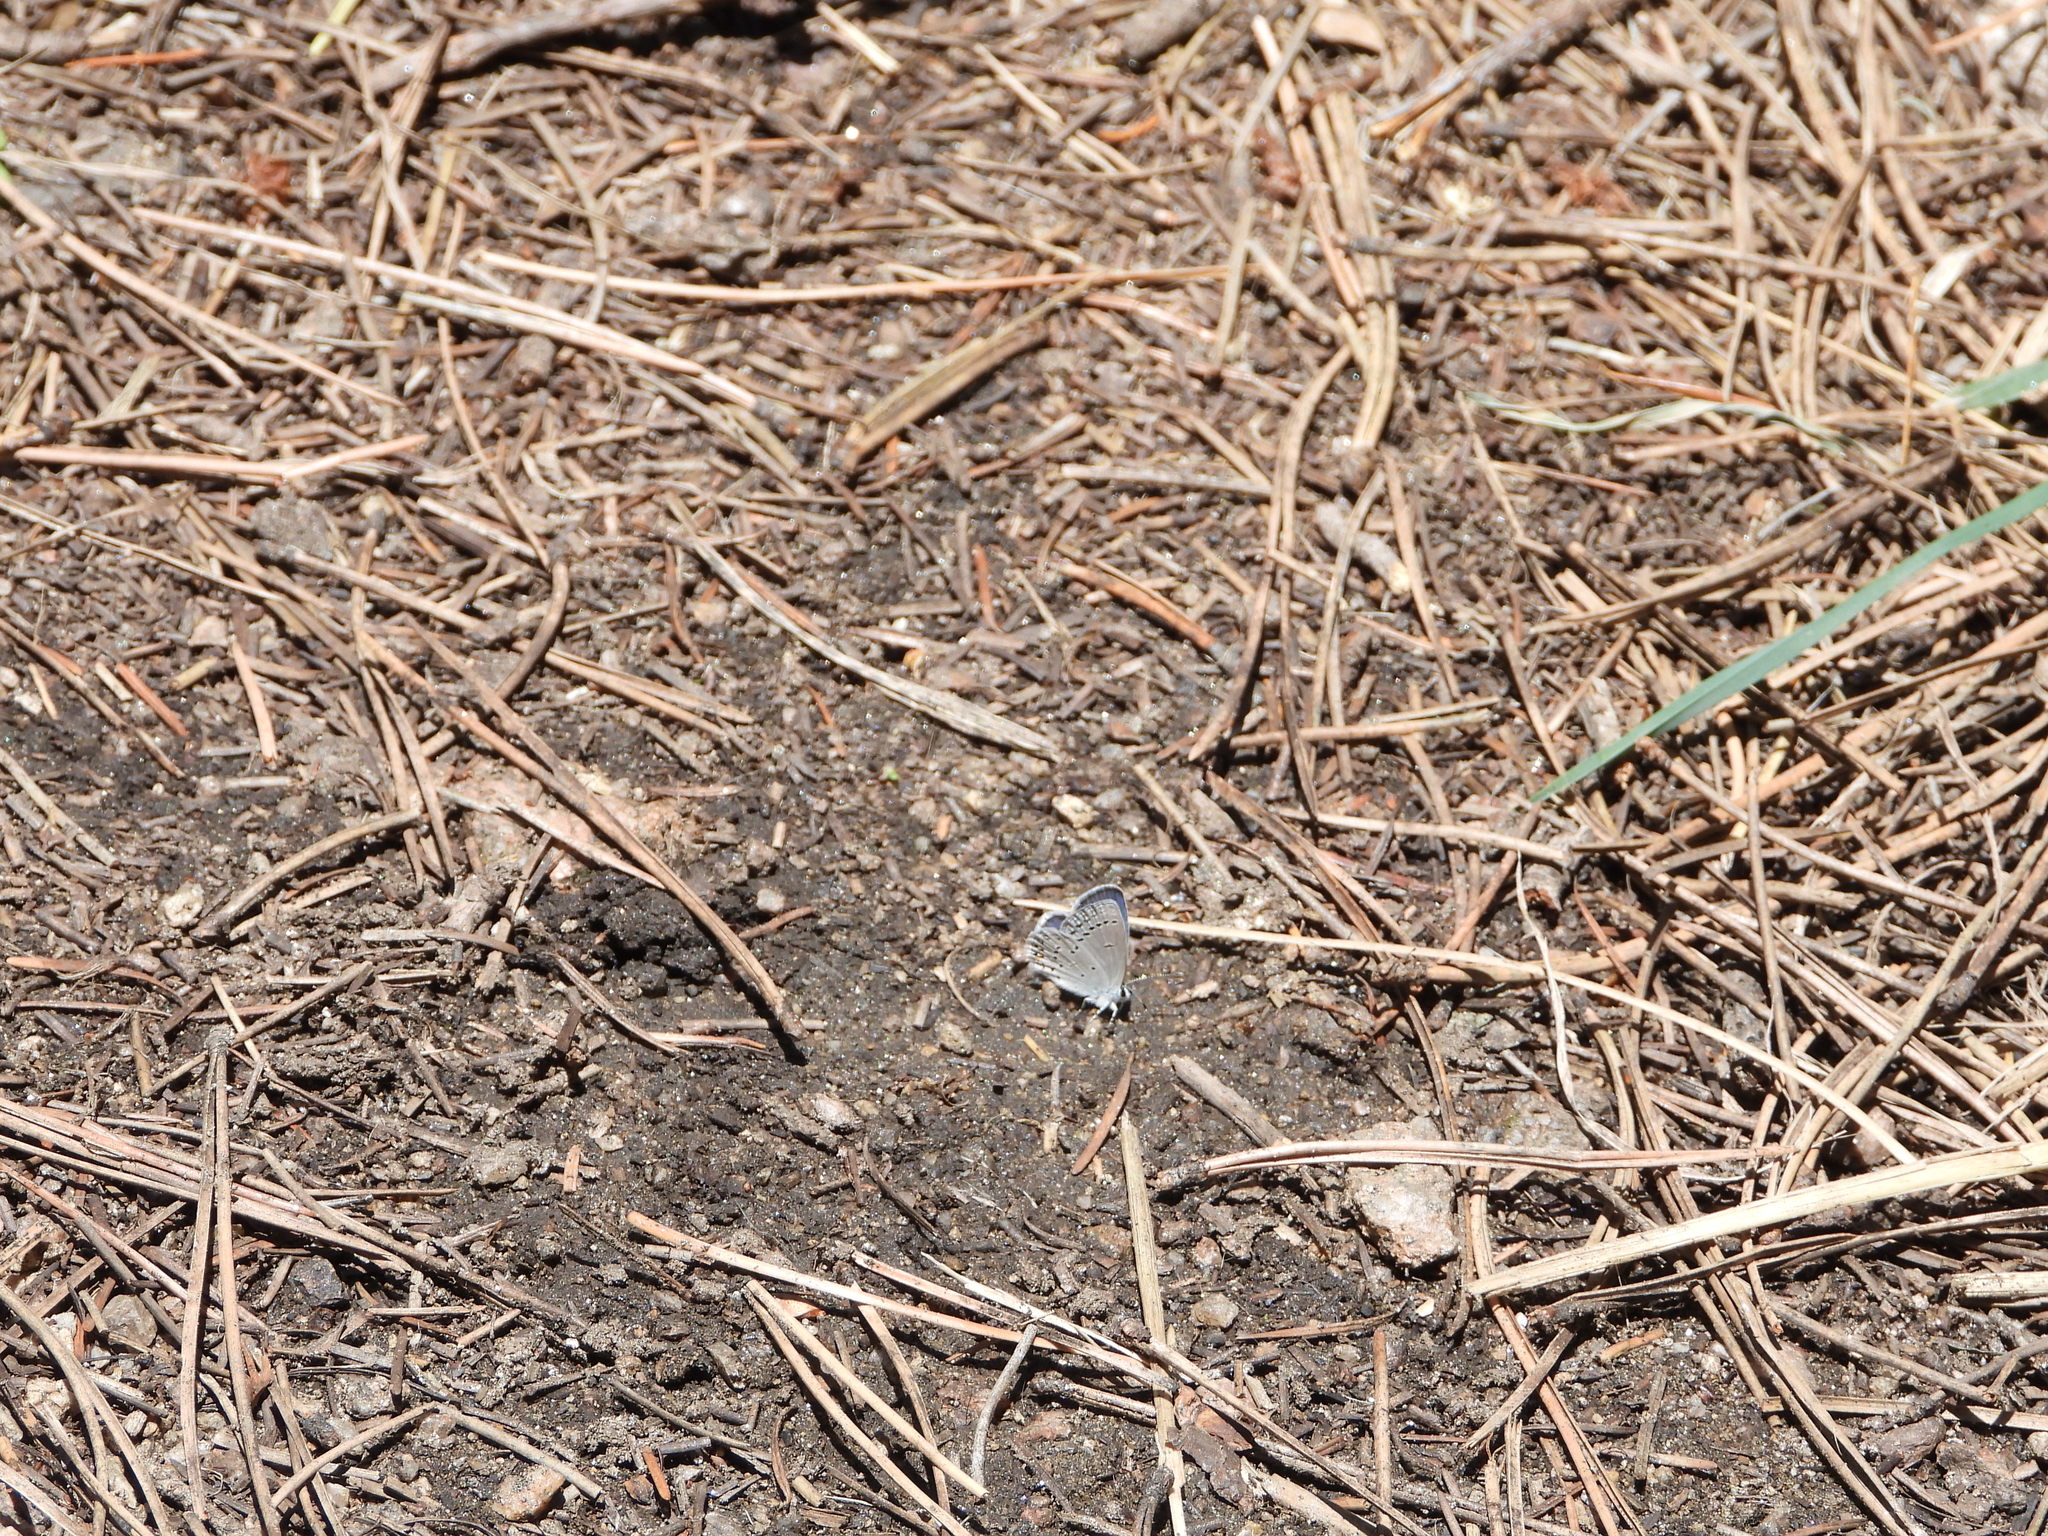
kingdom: Animalia
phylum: Arthropoda
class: Insecta
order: Lepidoptera
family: Lycaenidae
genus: Elkalyce
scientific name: Elkalyce amyntula
